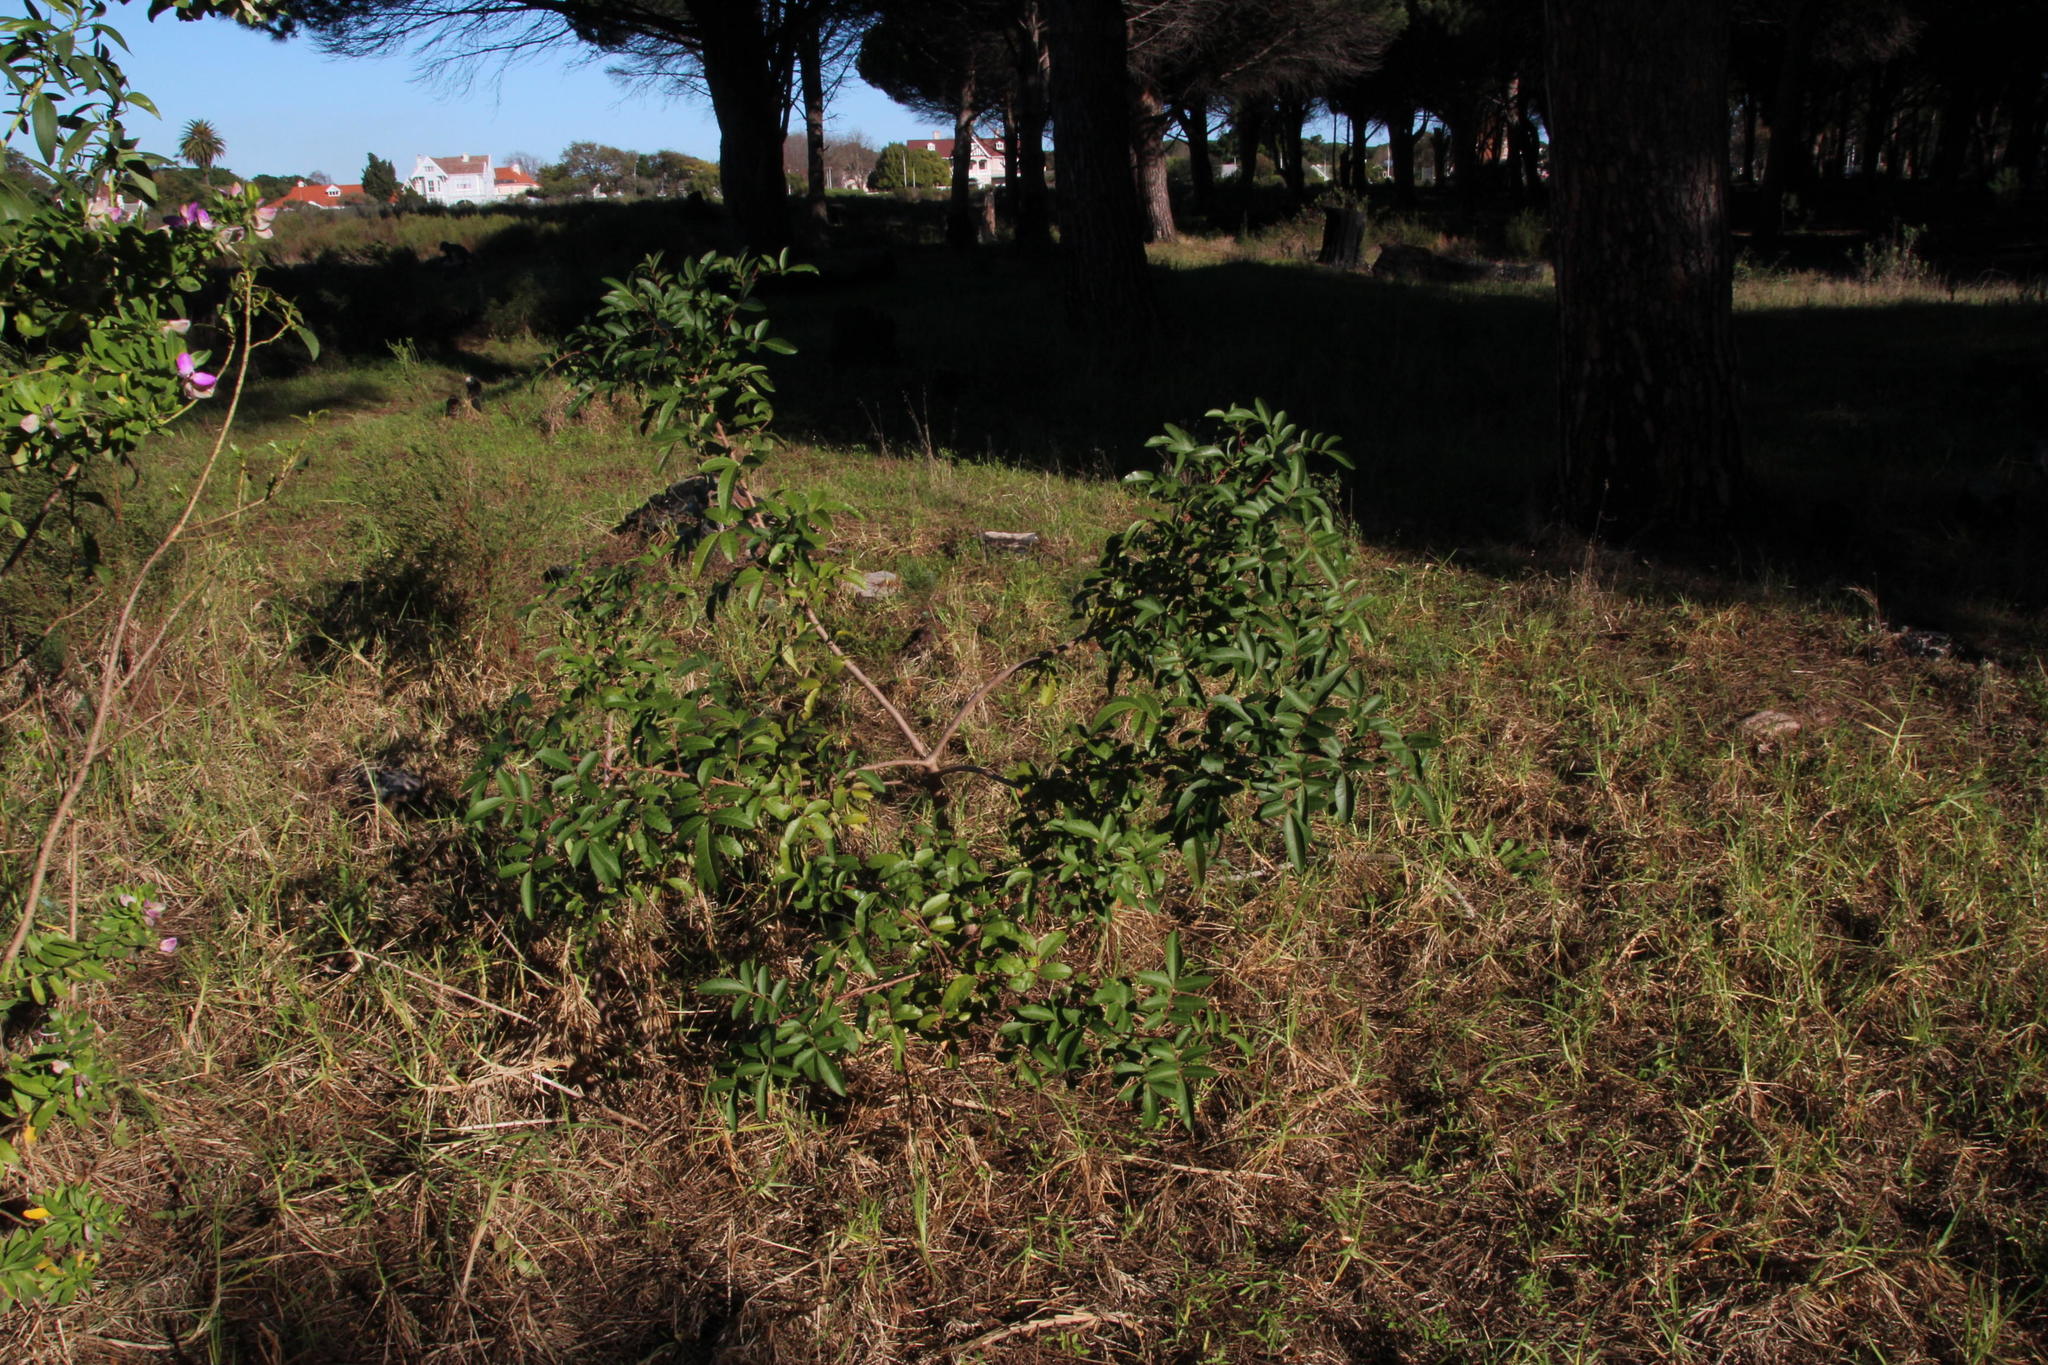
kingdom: Plantae
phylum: Tracheophyta
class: Magnoliopsida
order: Sapindales
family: Anacardiaceae
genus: Schinus
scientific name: Schinus terebinthifolia
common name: Brazilian peppertree
